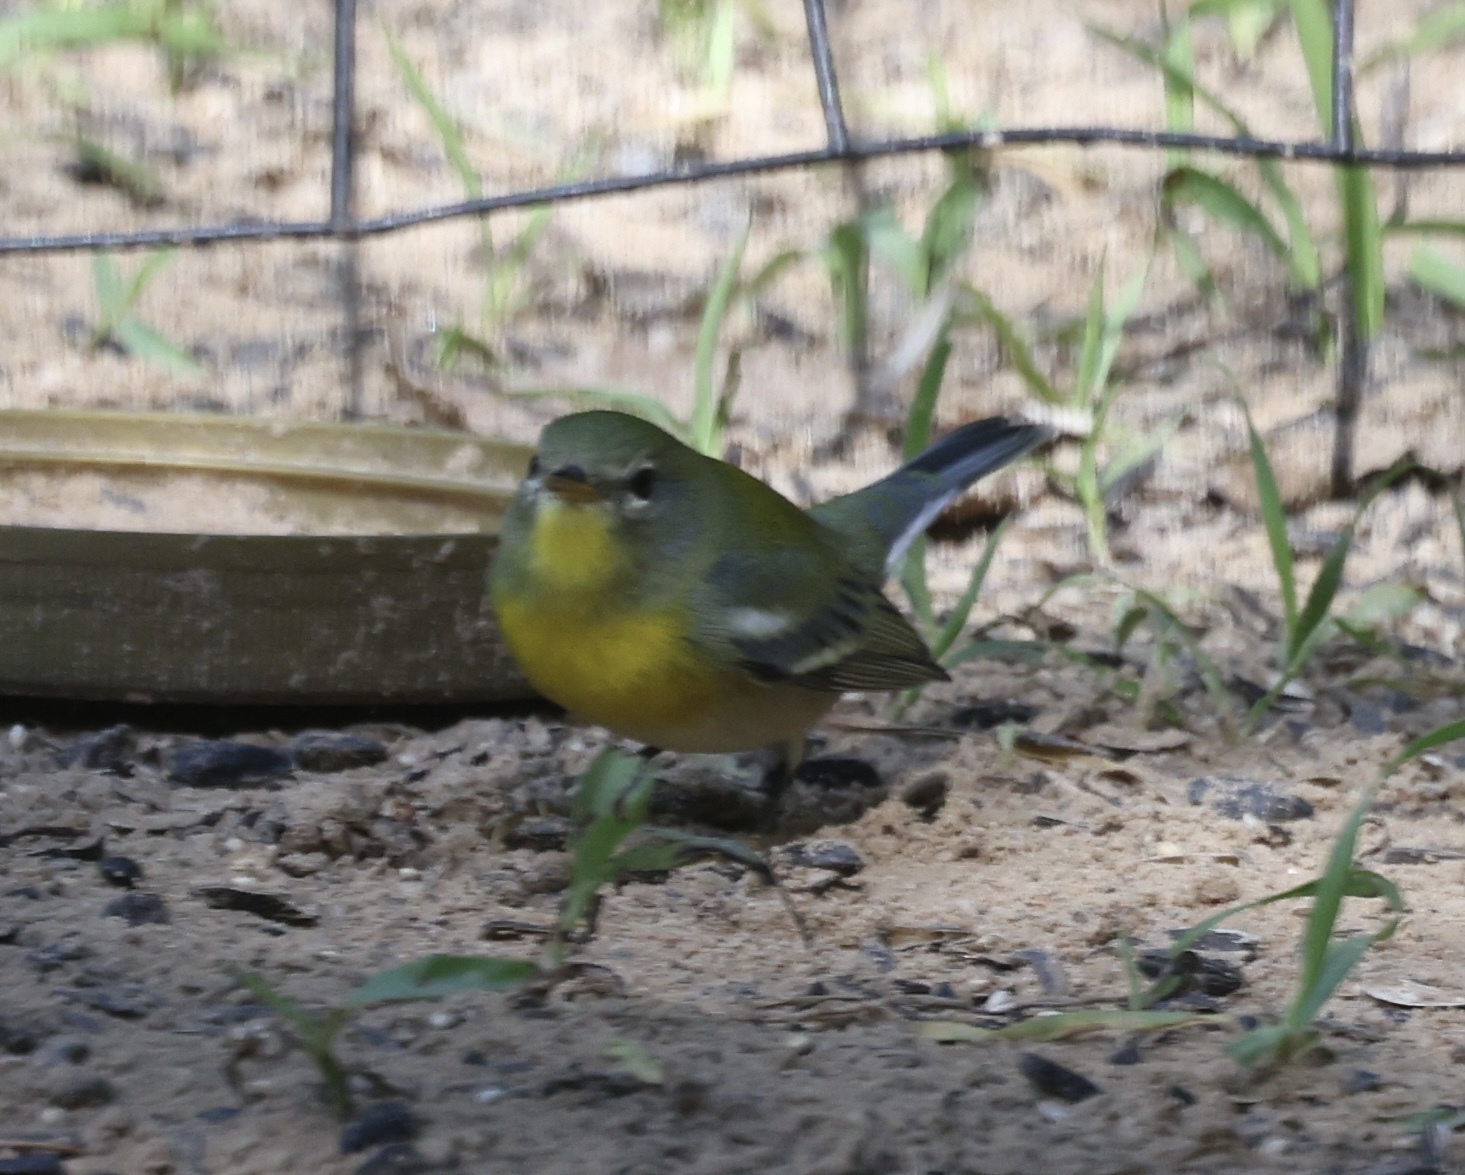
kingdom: Animalia
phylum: Chordata
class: Aves
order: Passeriformes
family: Parulidae
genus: Setophaga
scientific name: Setophaga americana
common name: Northern parula
